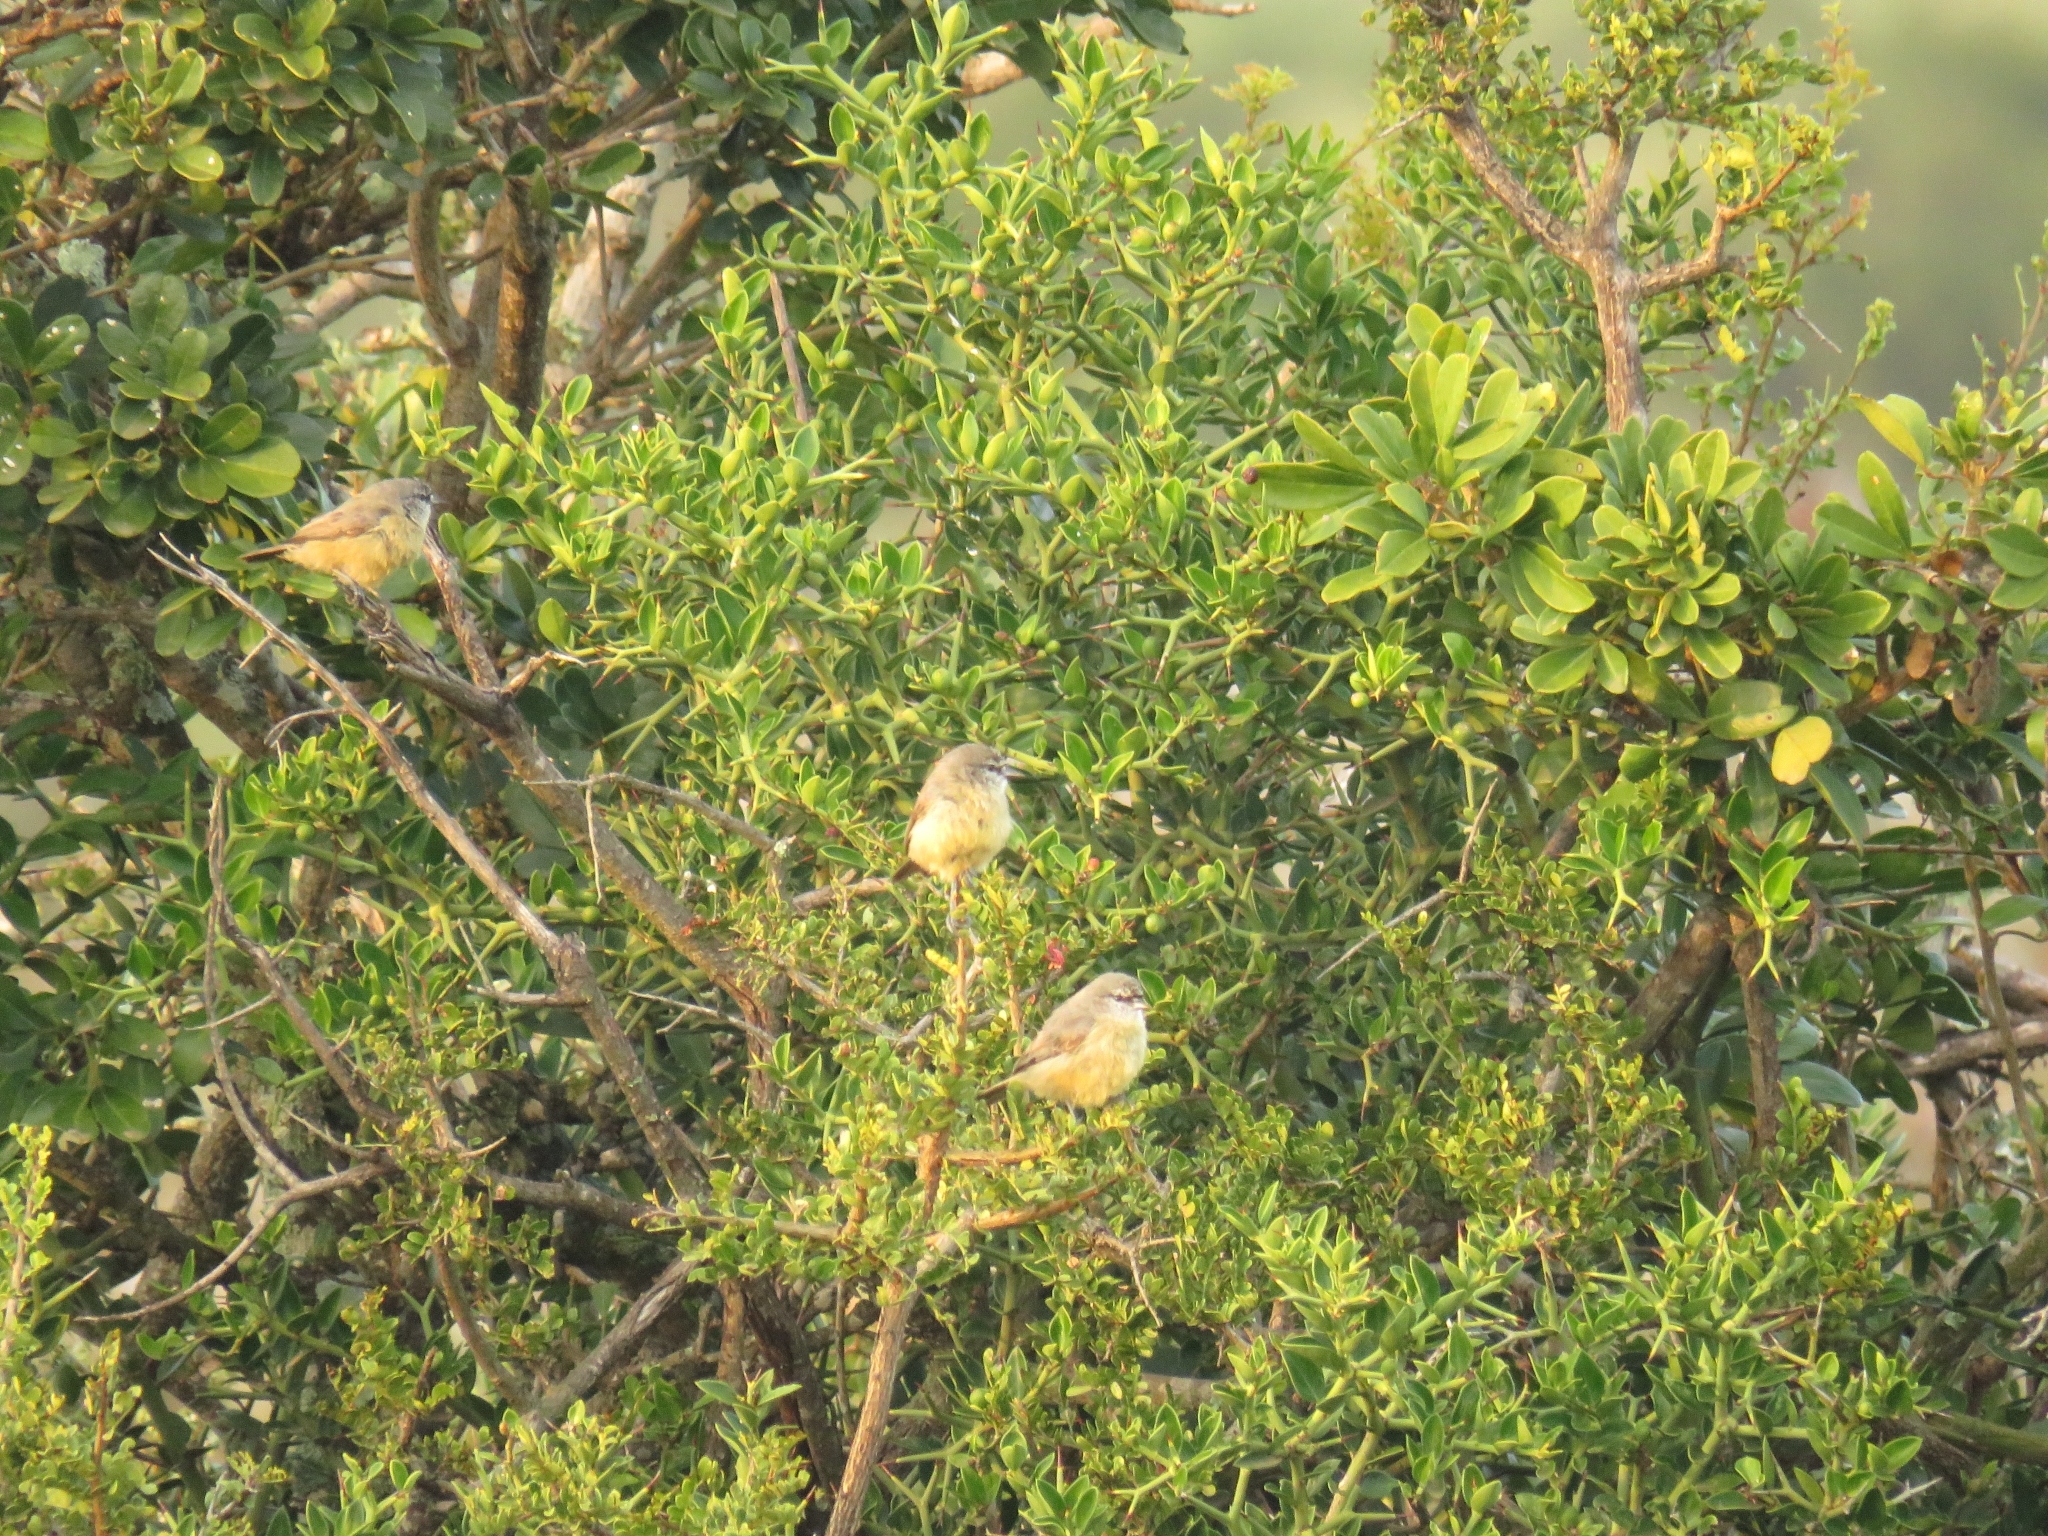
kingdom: Animalia
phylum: Chordata
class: Aves
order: Passeriformes
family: Remizidae
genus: Anthoscopus
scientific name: Anthoscopus minutus
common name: Cape penduline tit
